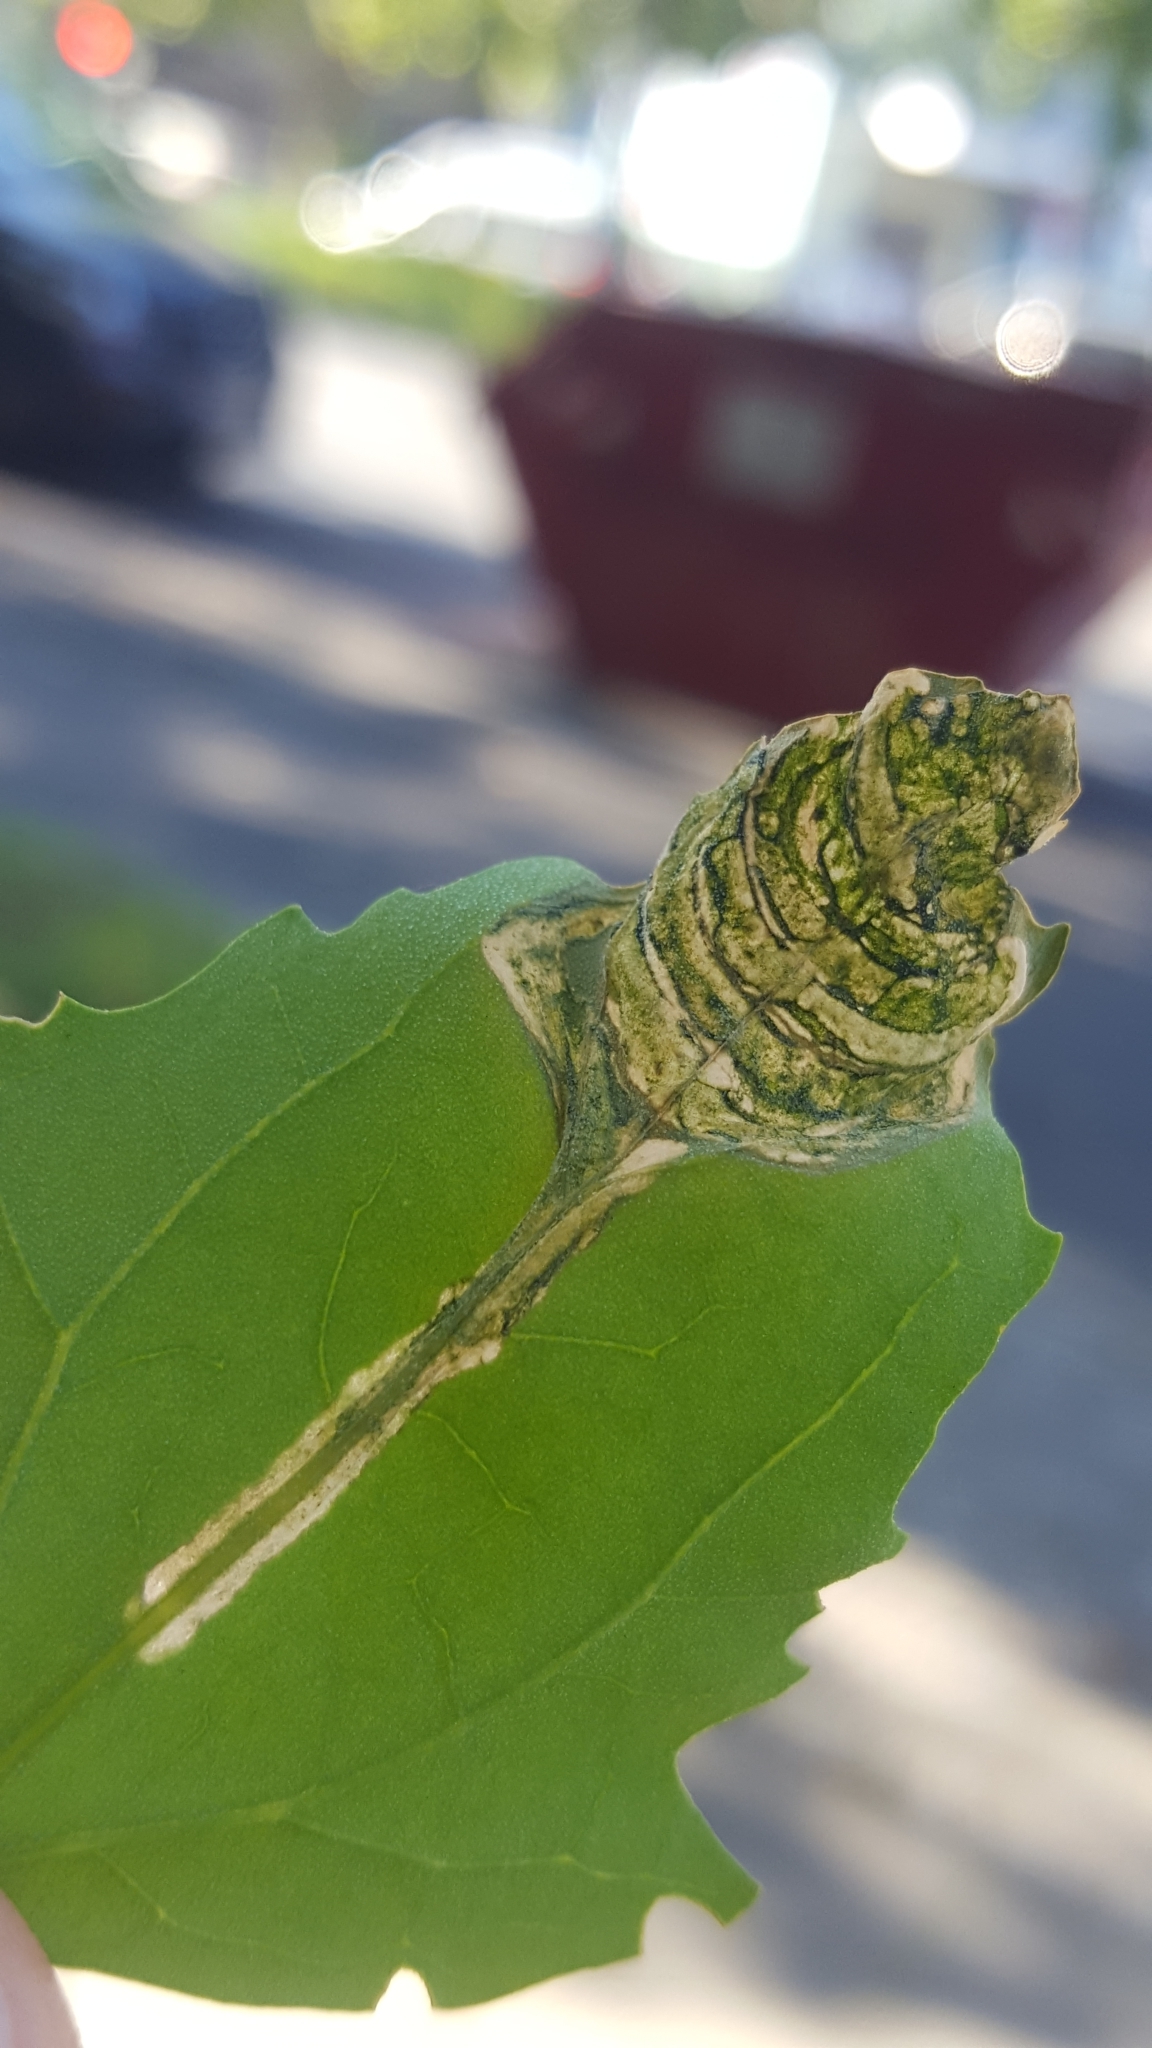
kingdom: Animalia
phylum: Arthropoda
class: Insecta
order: Lepidoptera
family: Gelechiidae
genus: Chrysoesthia
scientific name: Chrysoesthia drurella
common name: Flame neb
